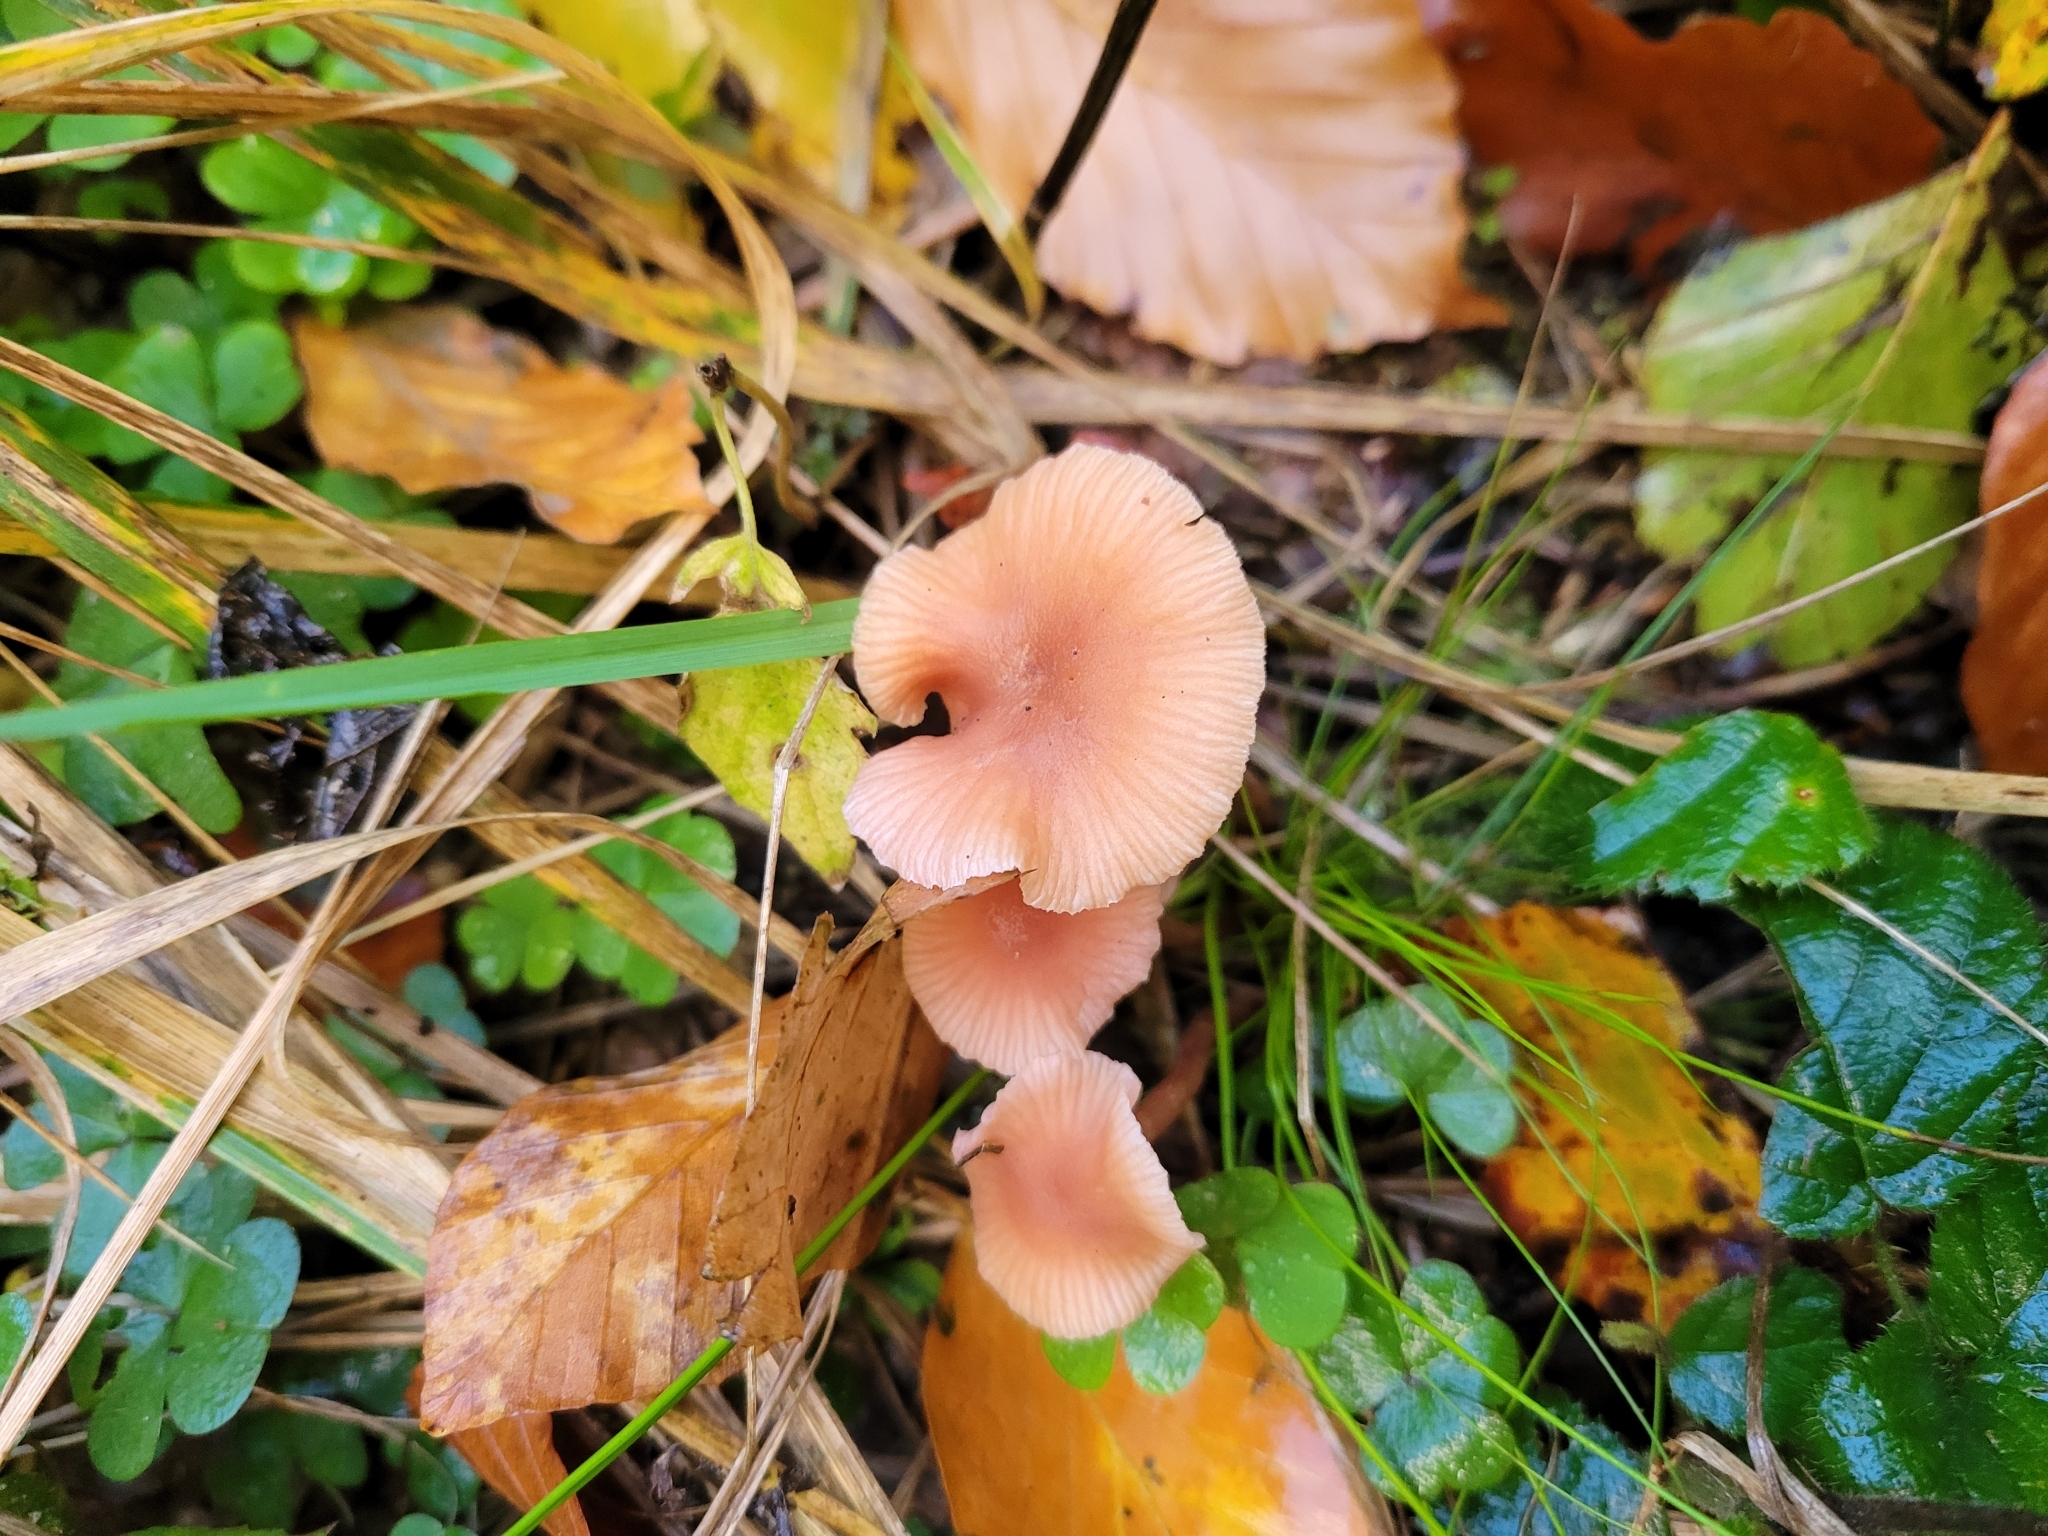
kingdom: Fungi
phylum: Basidiomycota
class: Agaricomycetes
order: Agaricales
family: Hydnangiaceae
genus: Laccaria
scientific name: Laccaria laccata
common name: Deceiver
